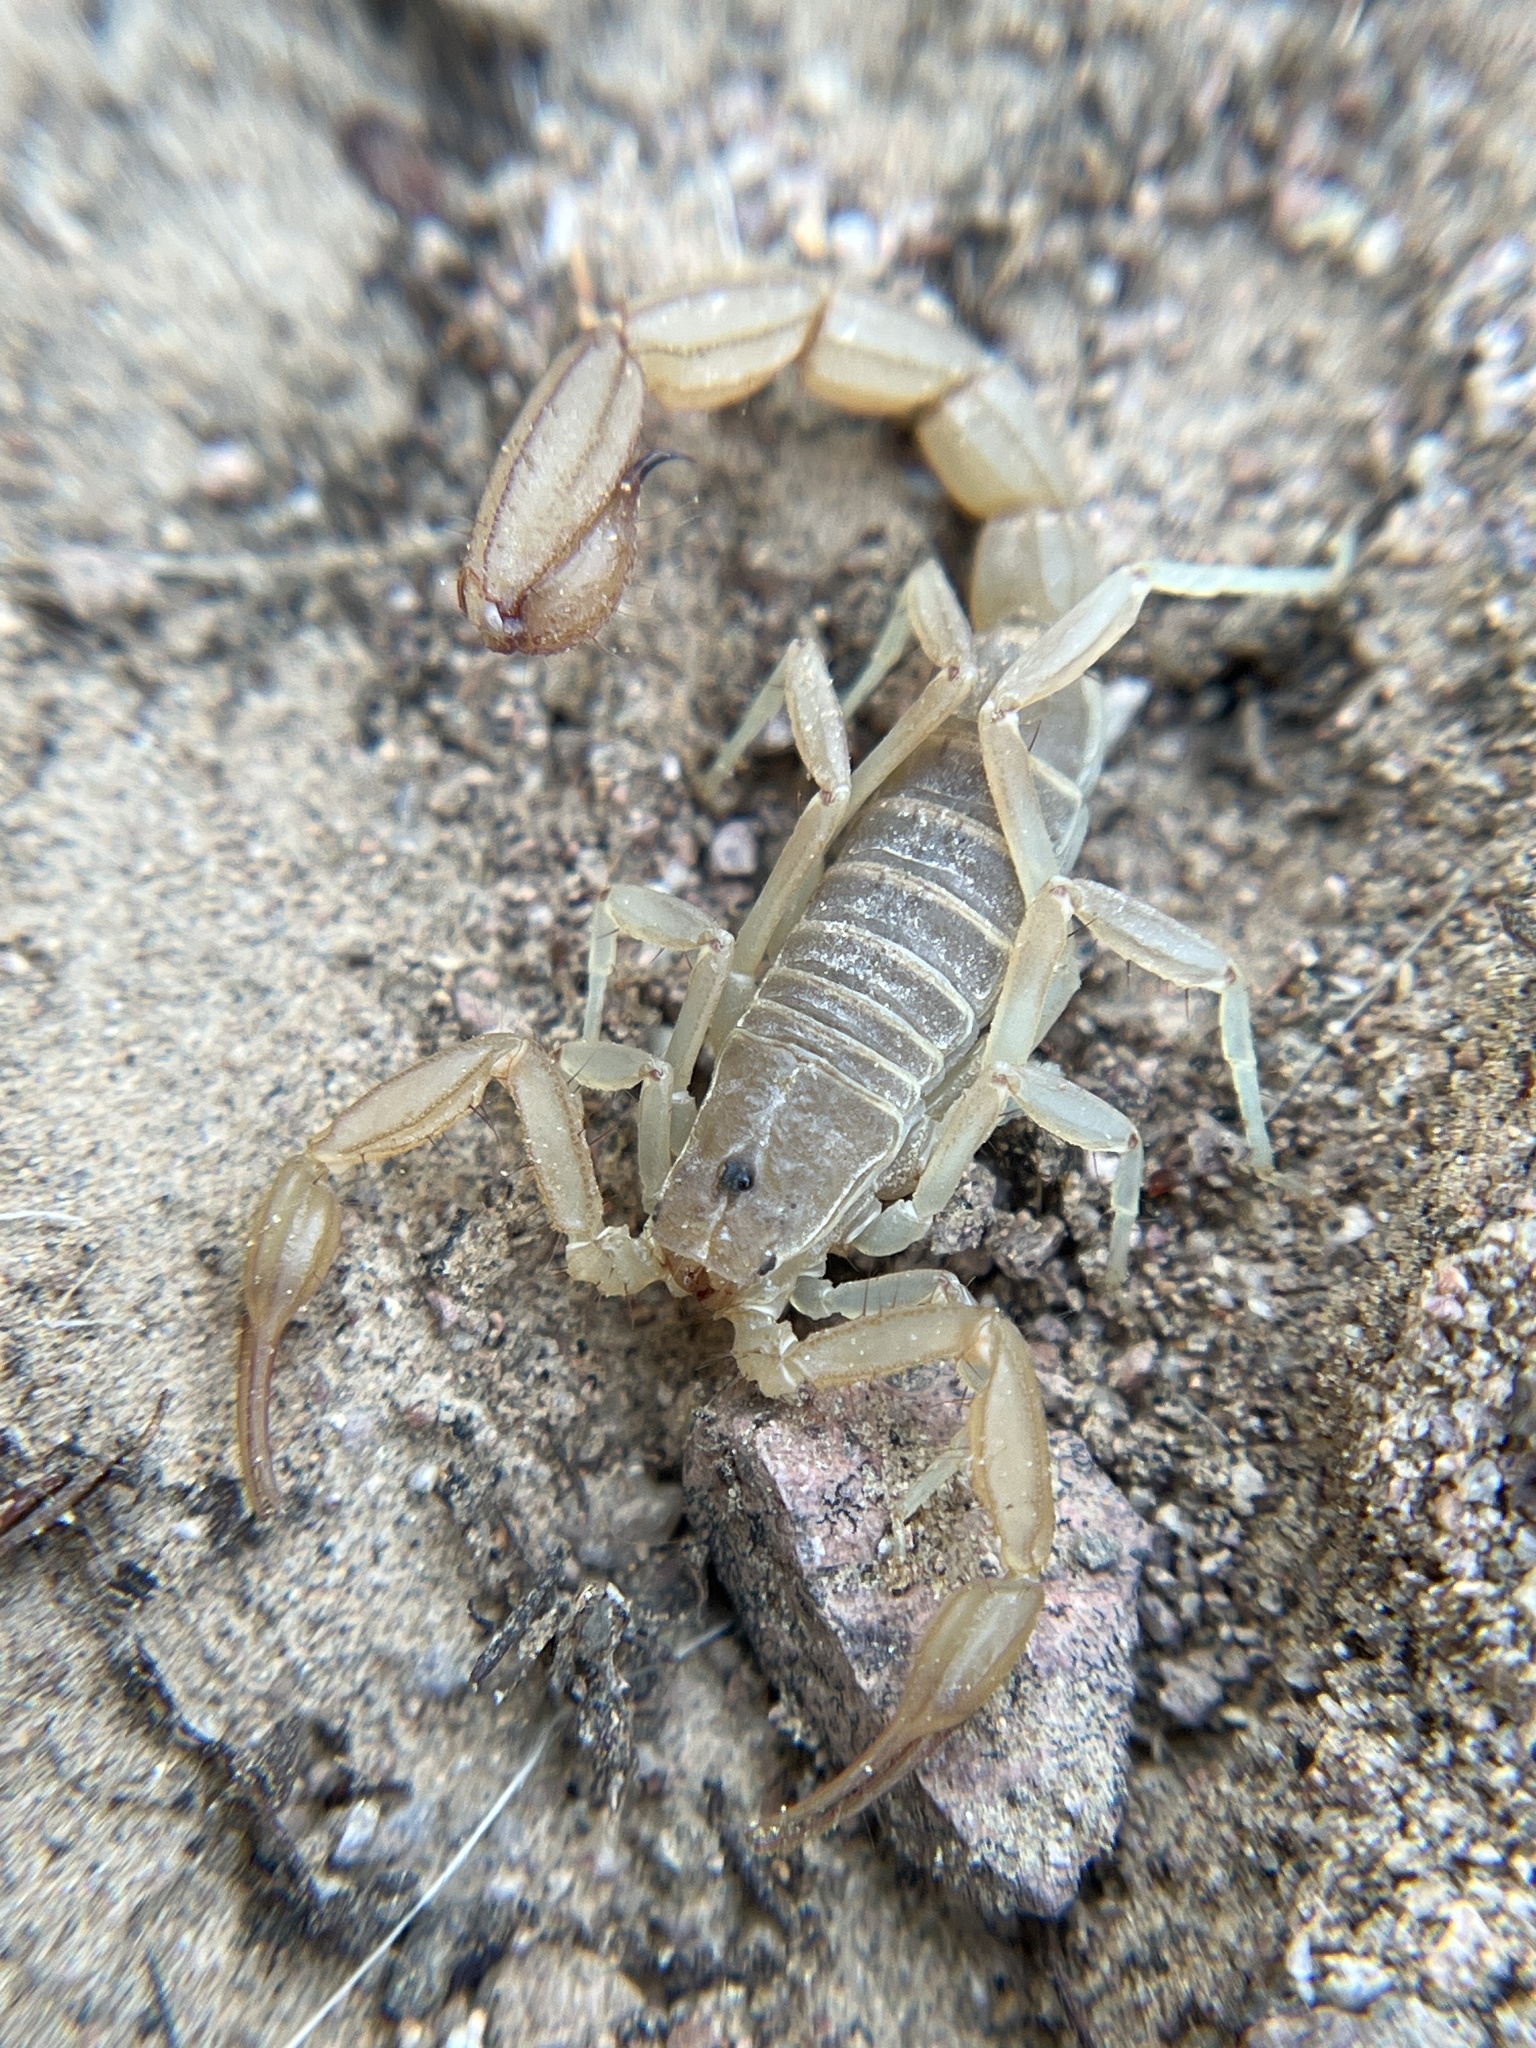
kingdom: Animalia
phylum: Arthropoda
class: Arachnida
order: Scorpiones
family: Vaejovidae
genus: Paravaejovis
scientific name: Paravaejovis confusus
